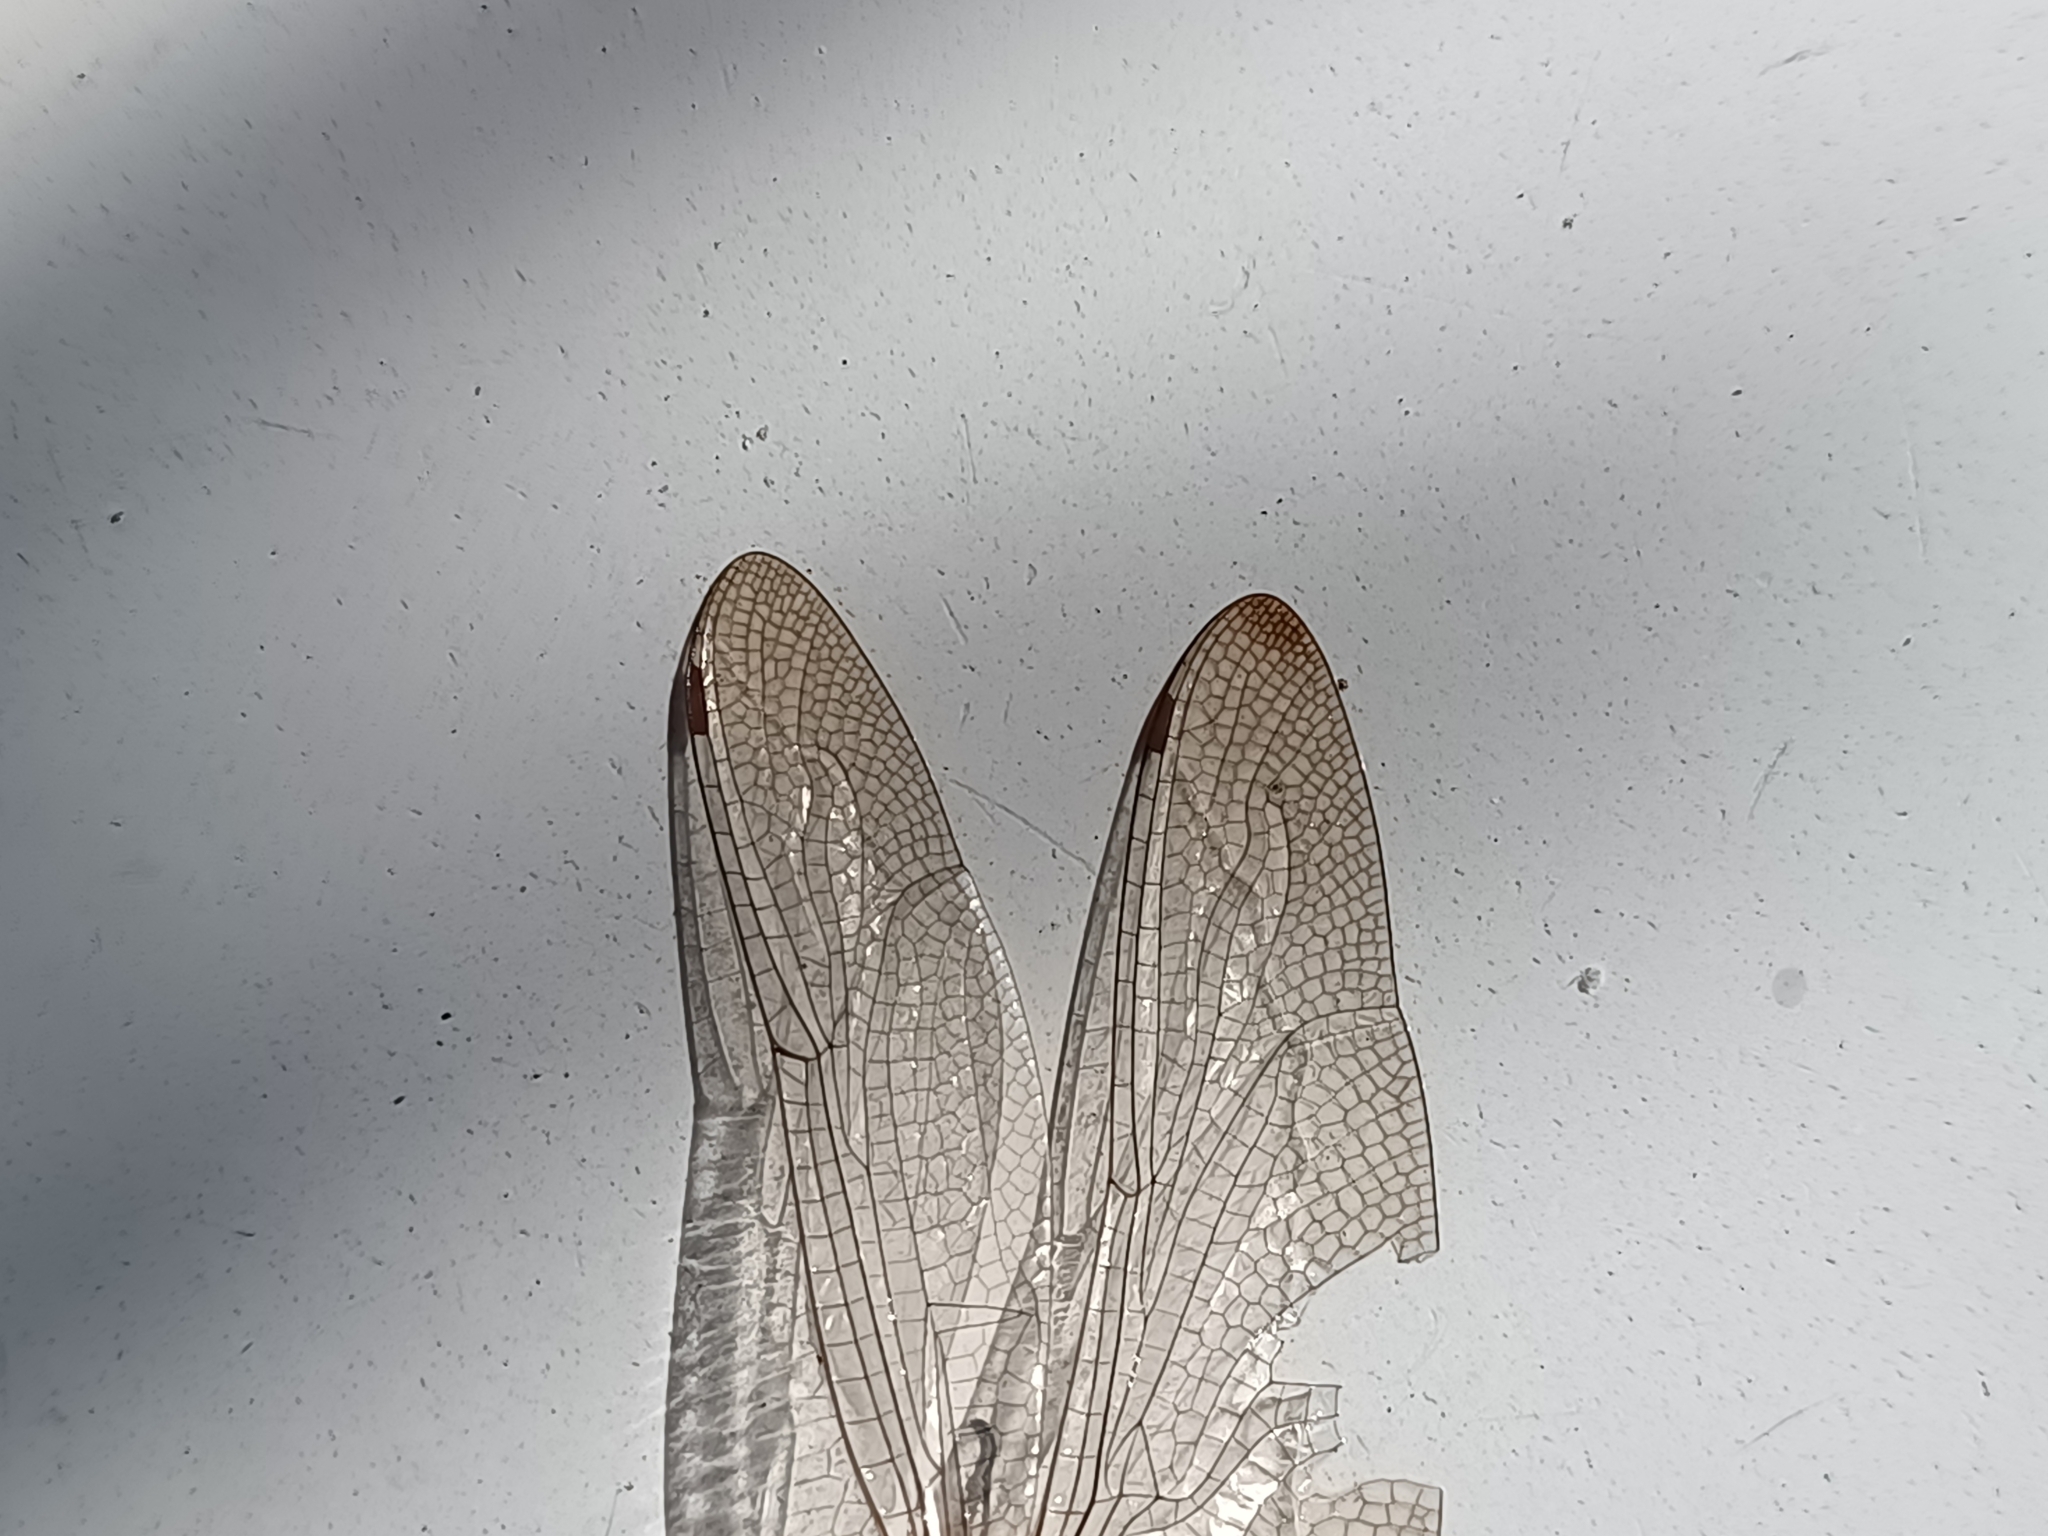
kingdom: Animalia
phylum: Arthropoda
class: Insecta
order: Odonata
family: Libellulidae
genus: Pantala
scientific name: Pantala flavescens
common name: Wandering glider
